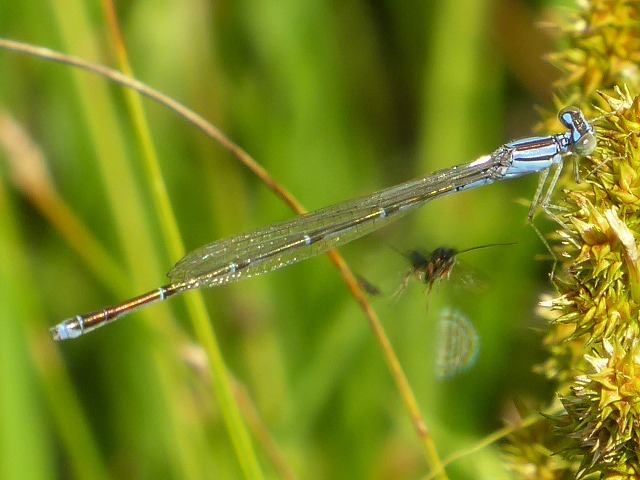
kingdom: Animalia
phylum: Arthropoda
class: Insecta
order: Odonata
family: Coenagrionidae
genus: Enallagma
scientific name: Enallagma signatum
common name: Orange bluet
